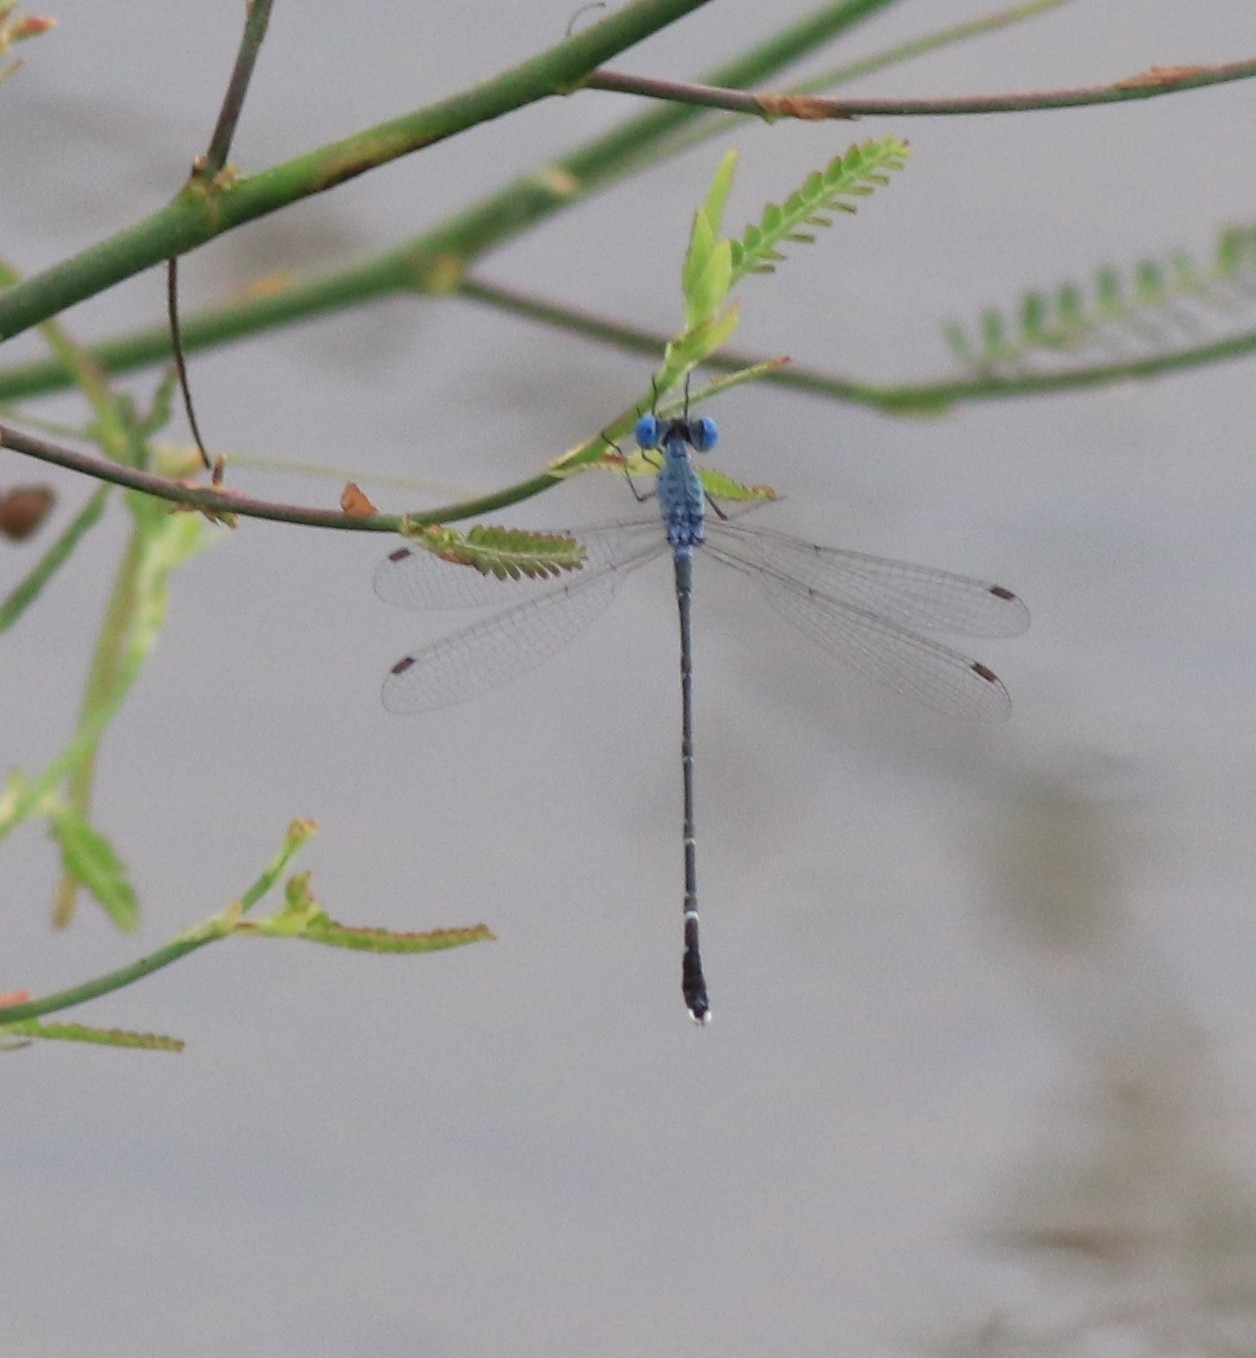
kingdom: Animalia
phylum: Arthropoda
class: Insecta
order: Odonata
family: Lestidae
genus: Lestes
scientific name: Lestes praemorsus
